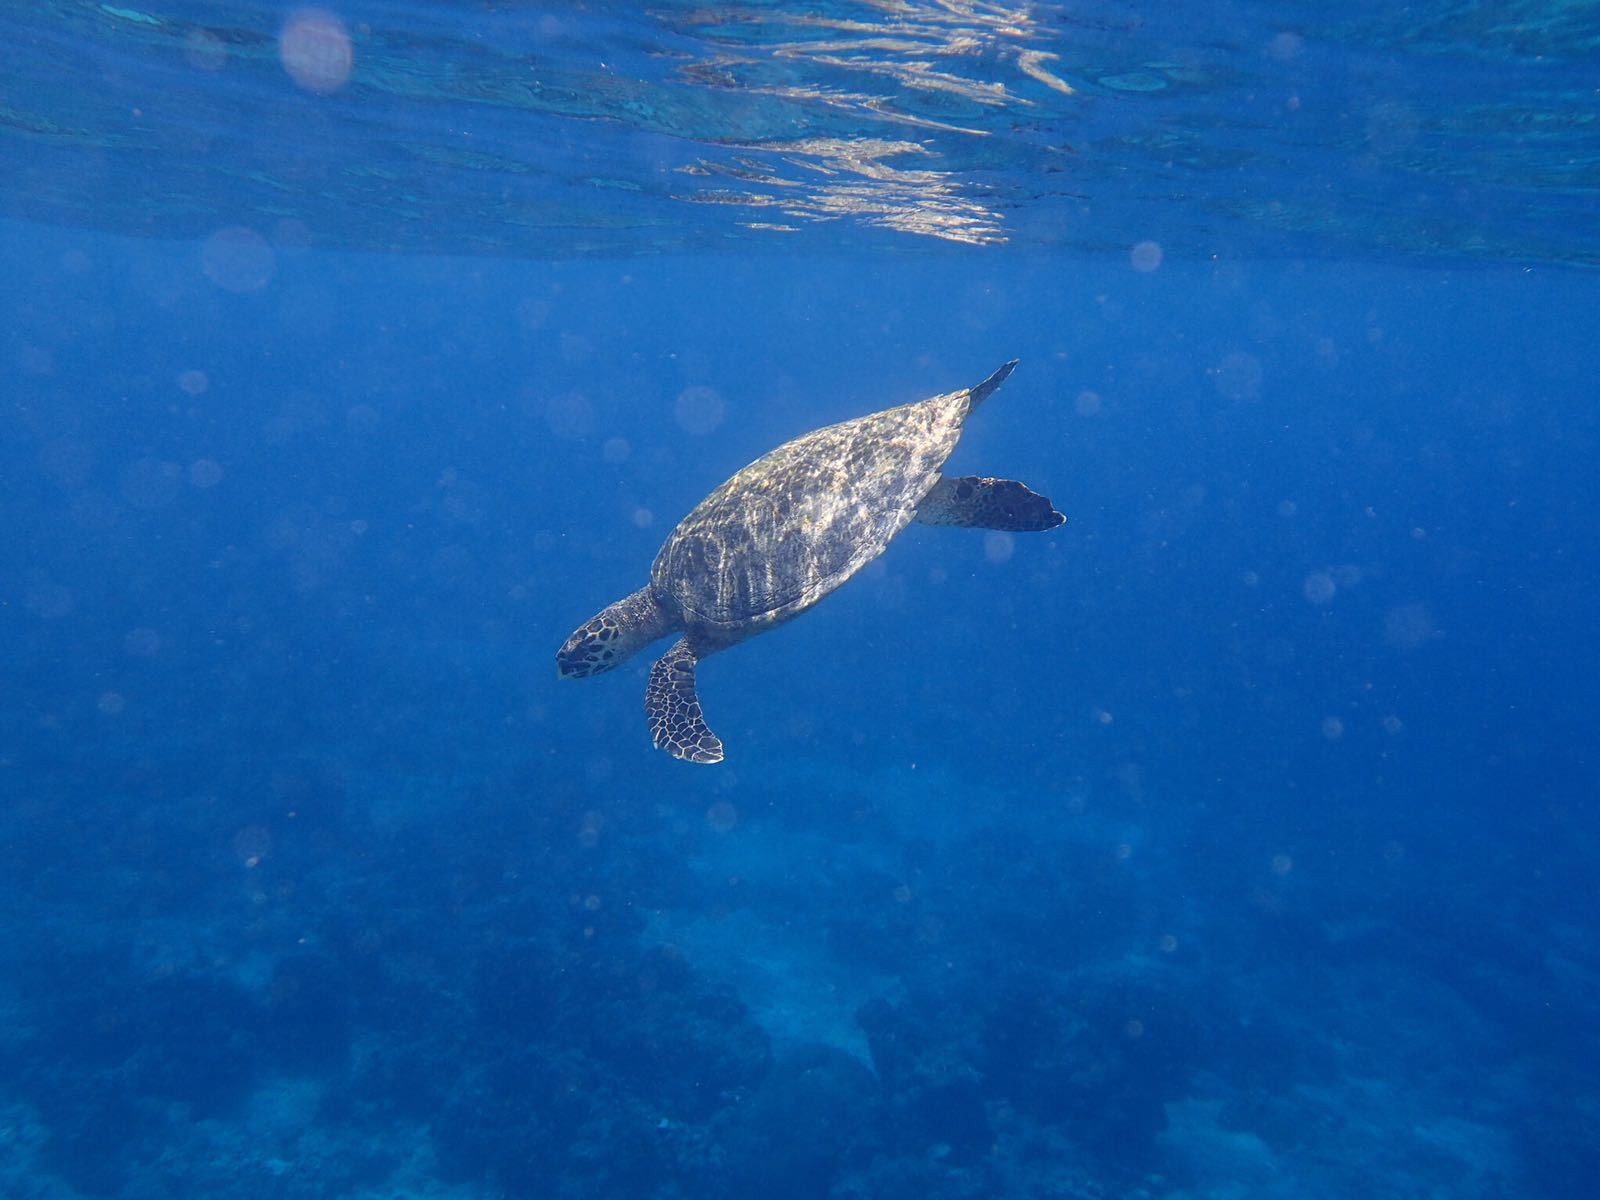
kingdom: Animalia
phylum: Chordata
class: Testudines
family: Cheloniidae
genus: Eretmochelys
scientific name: Eretmochelys imbricata
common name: Hawksbill turtle
